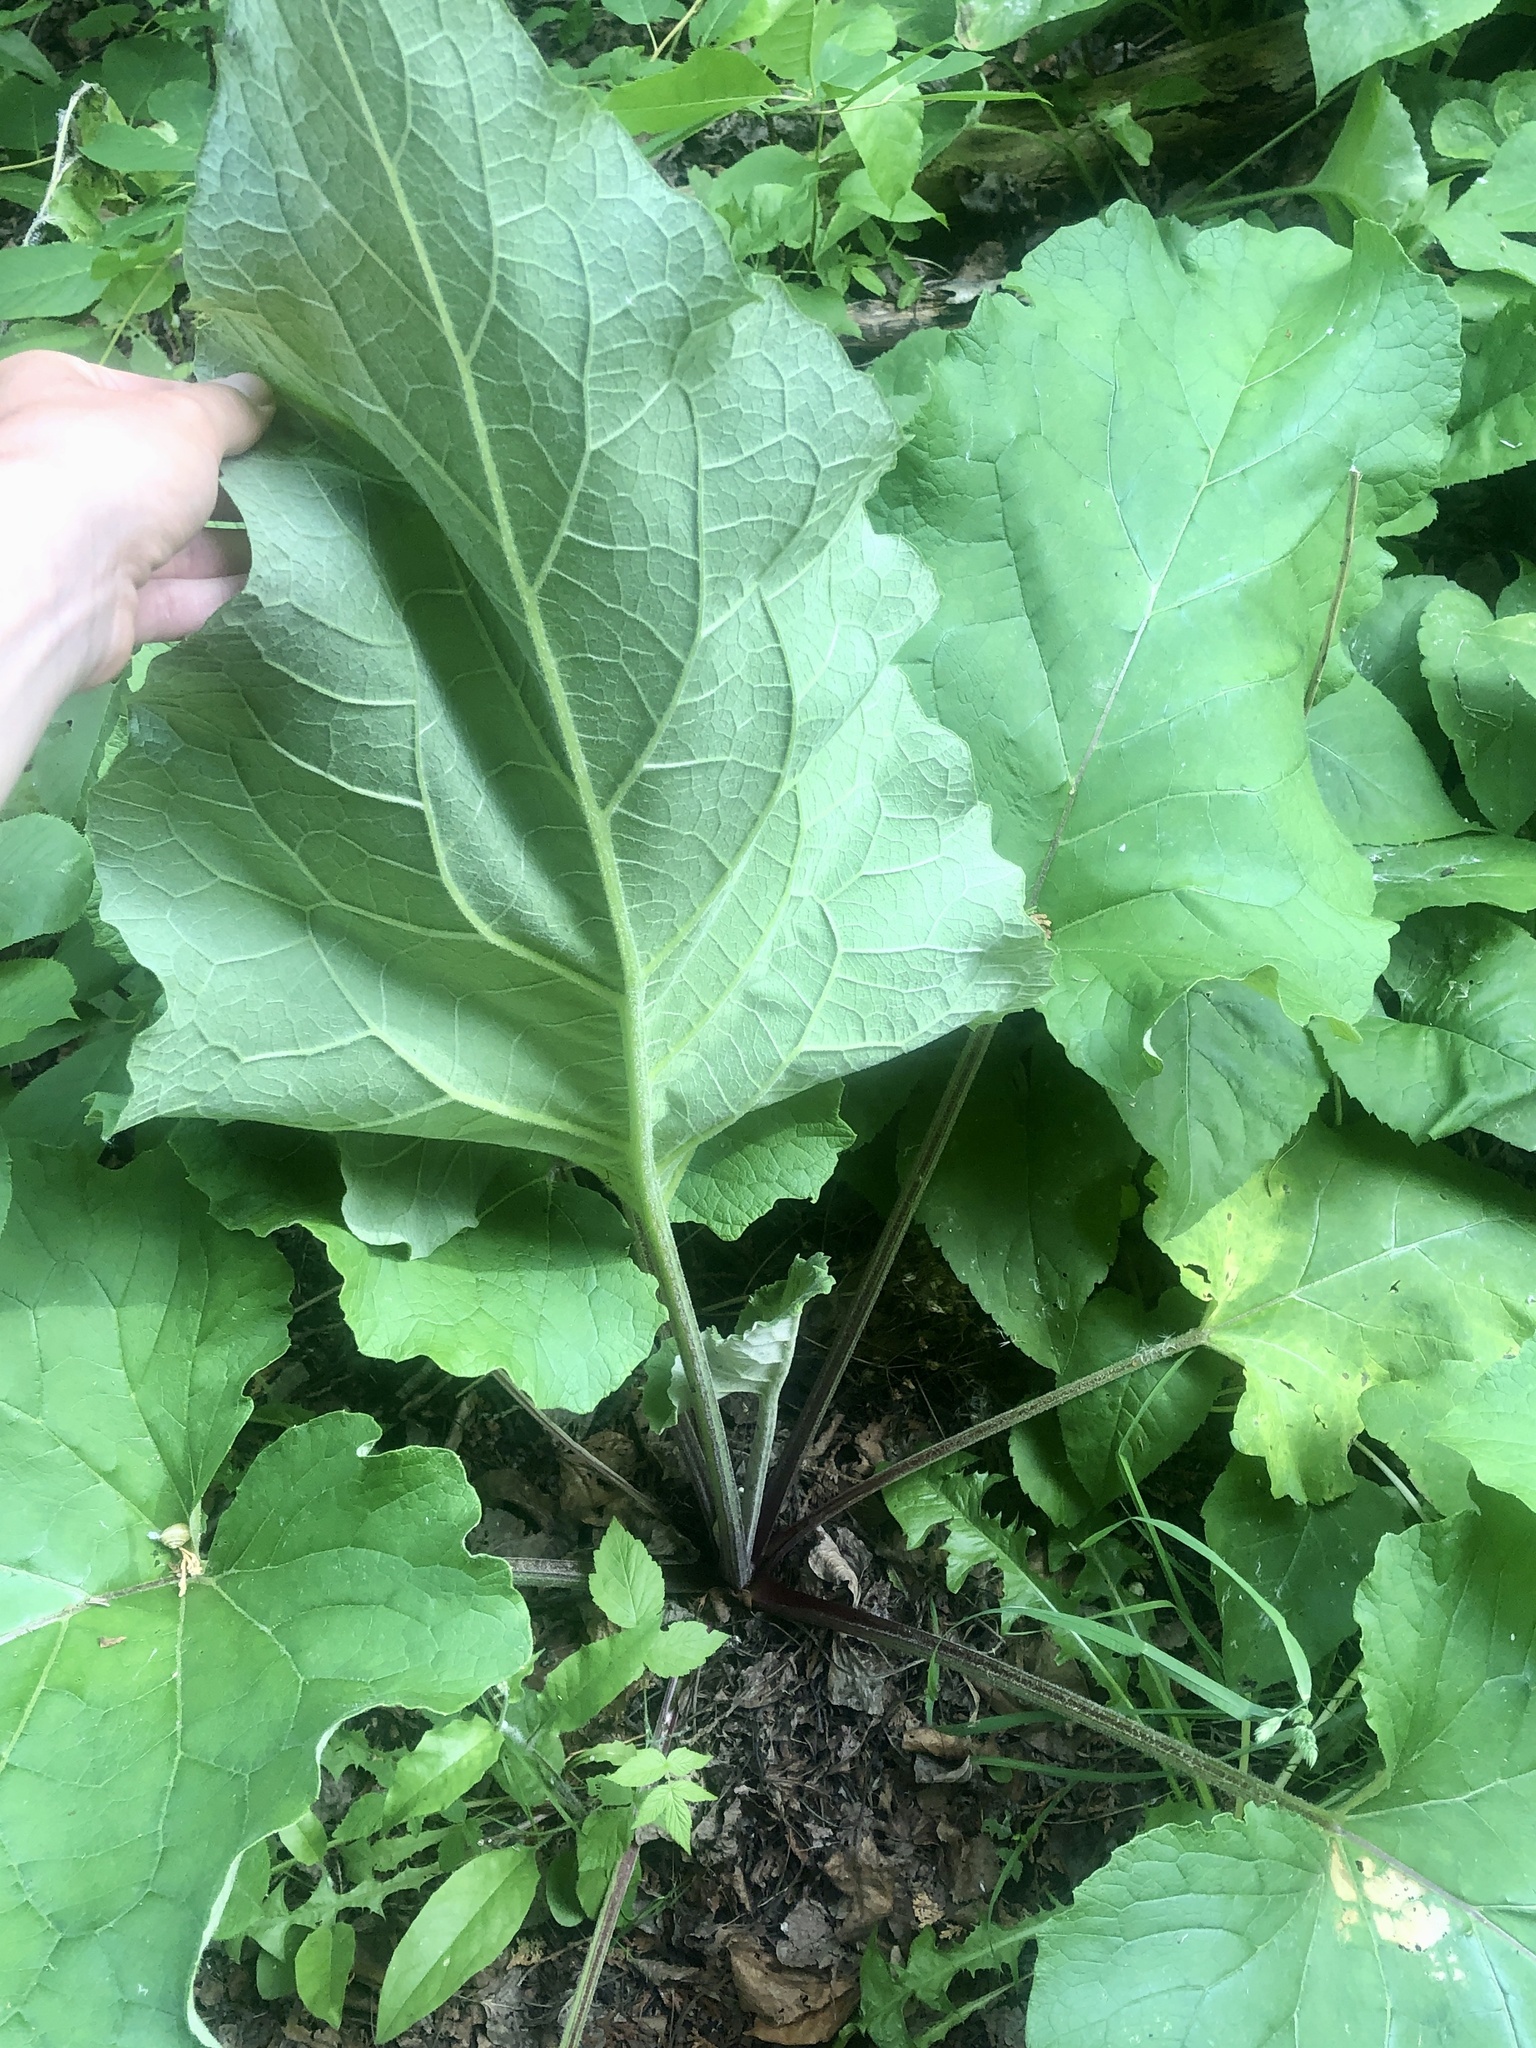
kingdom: Plantae
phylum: Tracheophyta
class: Magnoliopsida
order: Asterales
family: Asteraceae
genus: Arctium
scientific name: Arctium lappa
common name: Greater burdock
